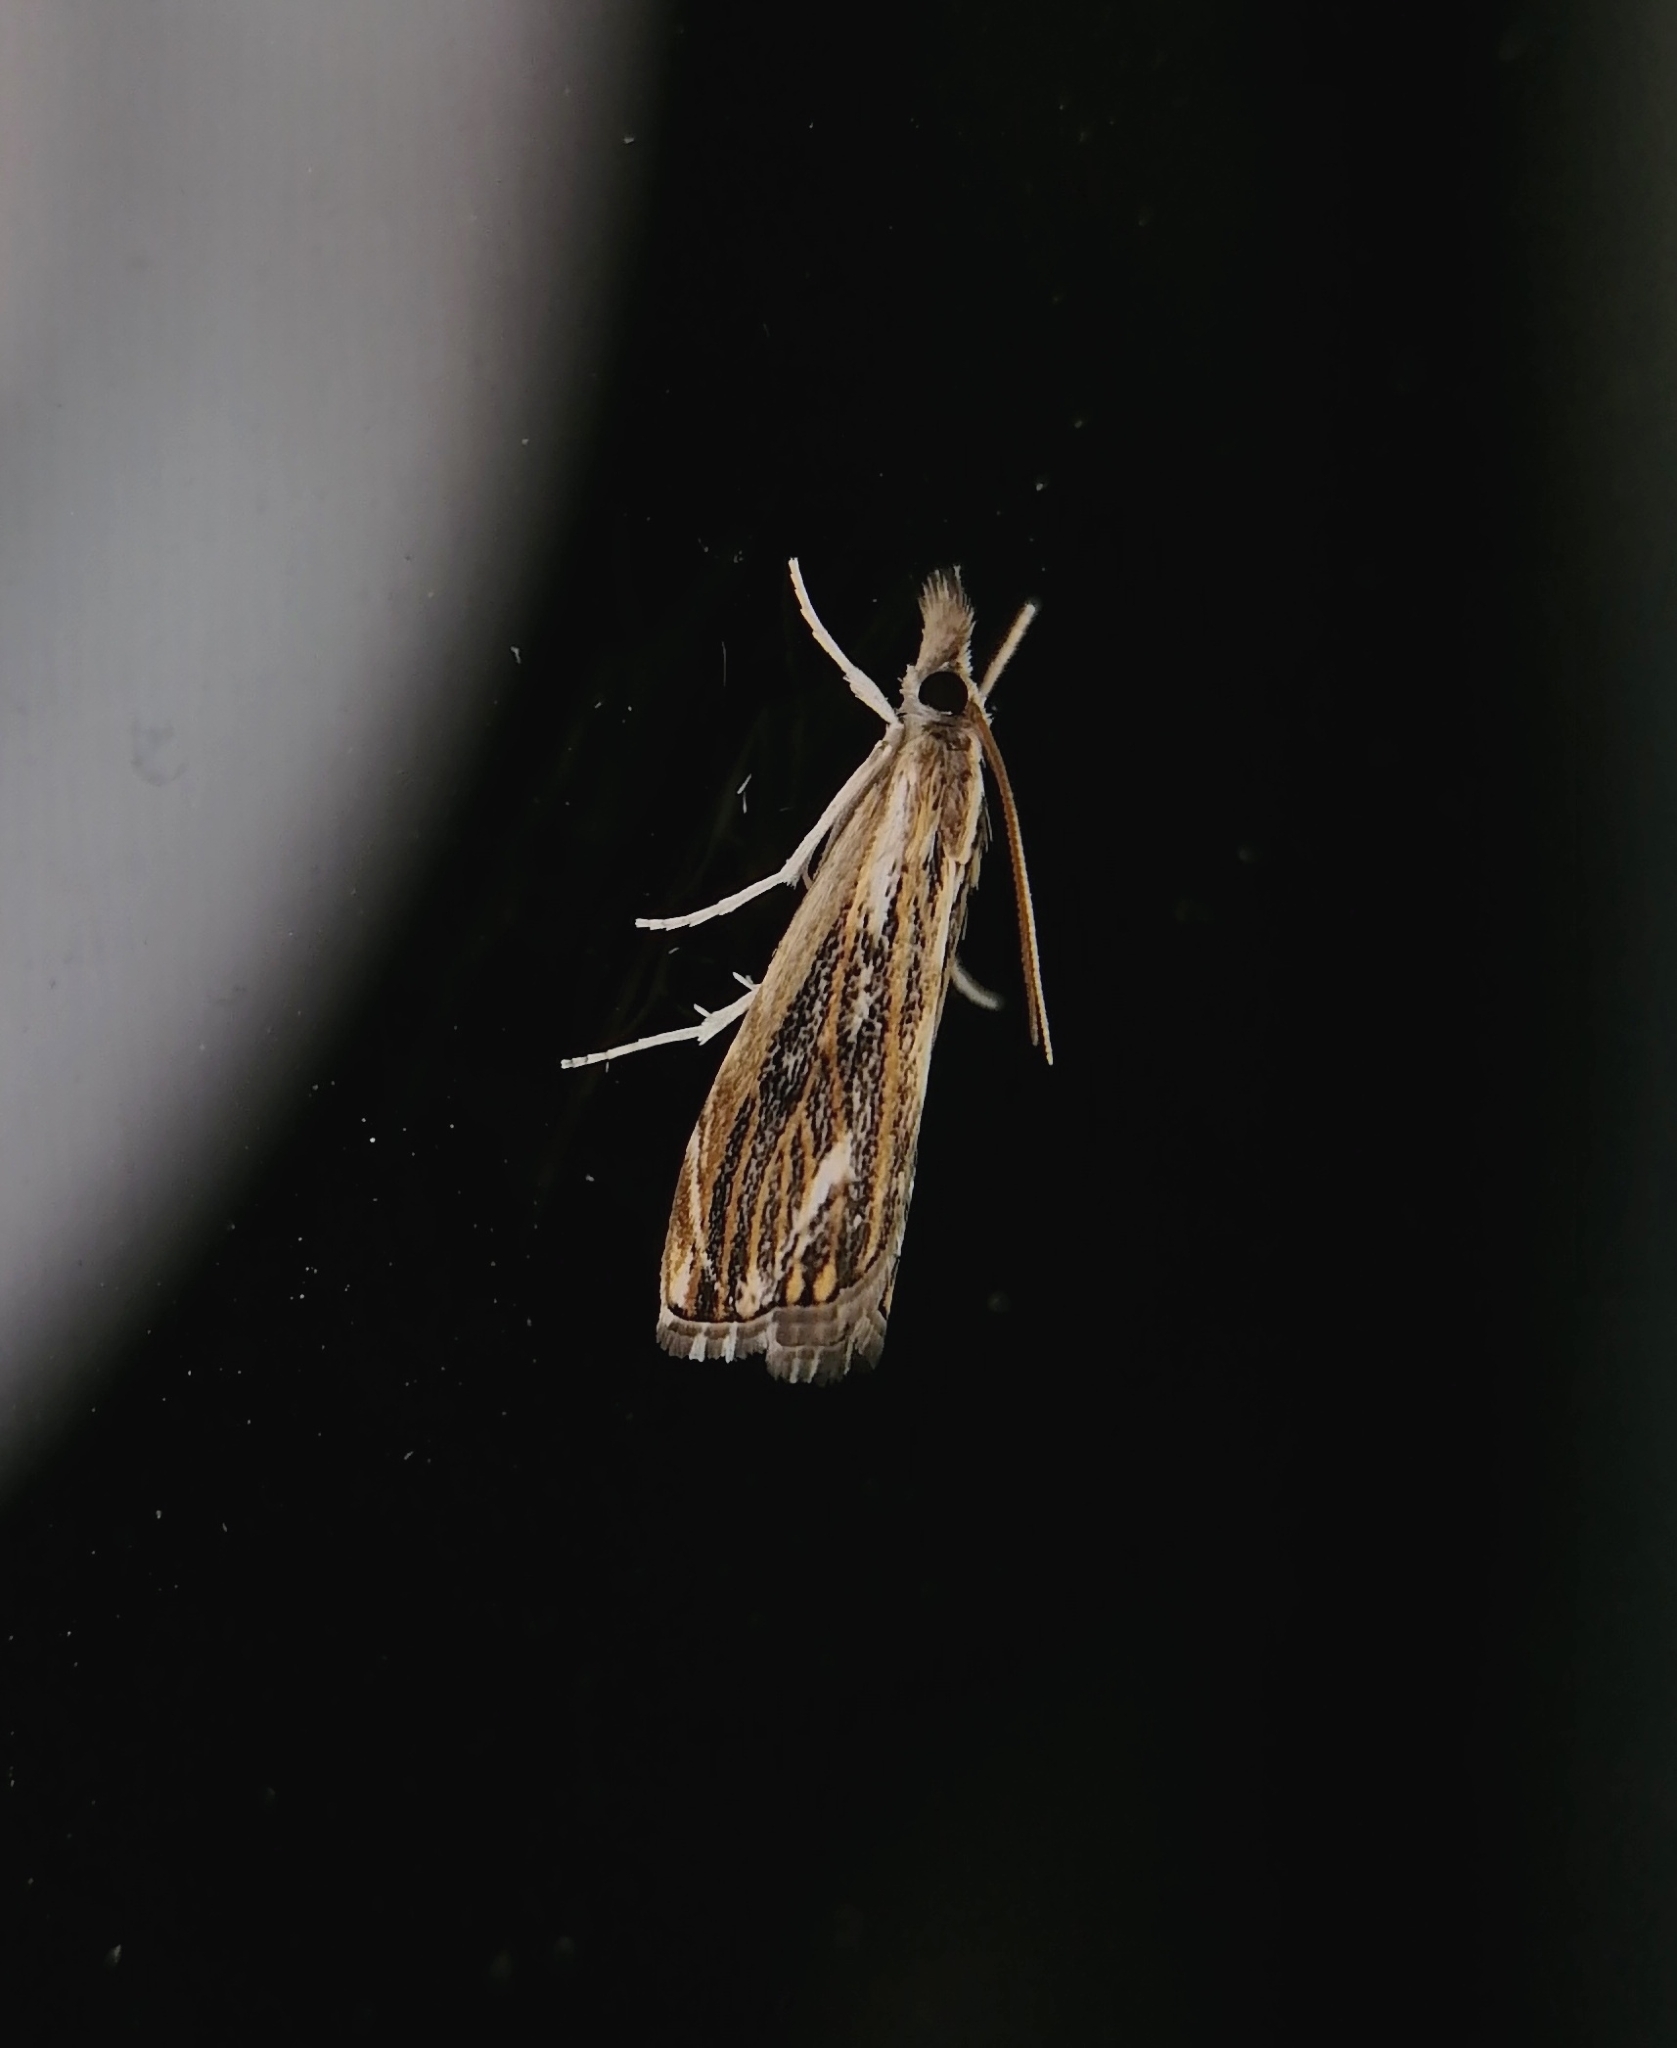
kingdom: Animalia
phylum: Arthropoda
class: Insecta
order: Lepidoptera
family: Crambidae
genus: Catoptria
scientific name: Catoptria verellus
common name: Marbled grass-veneer
